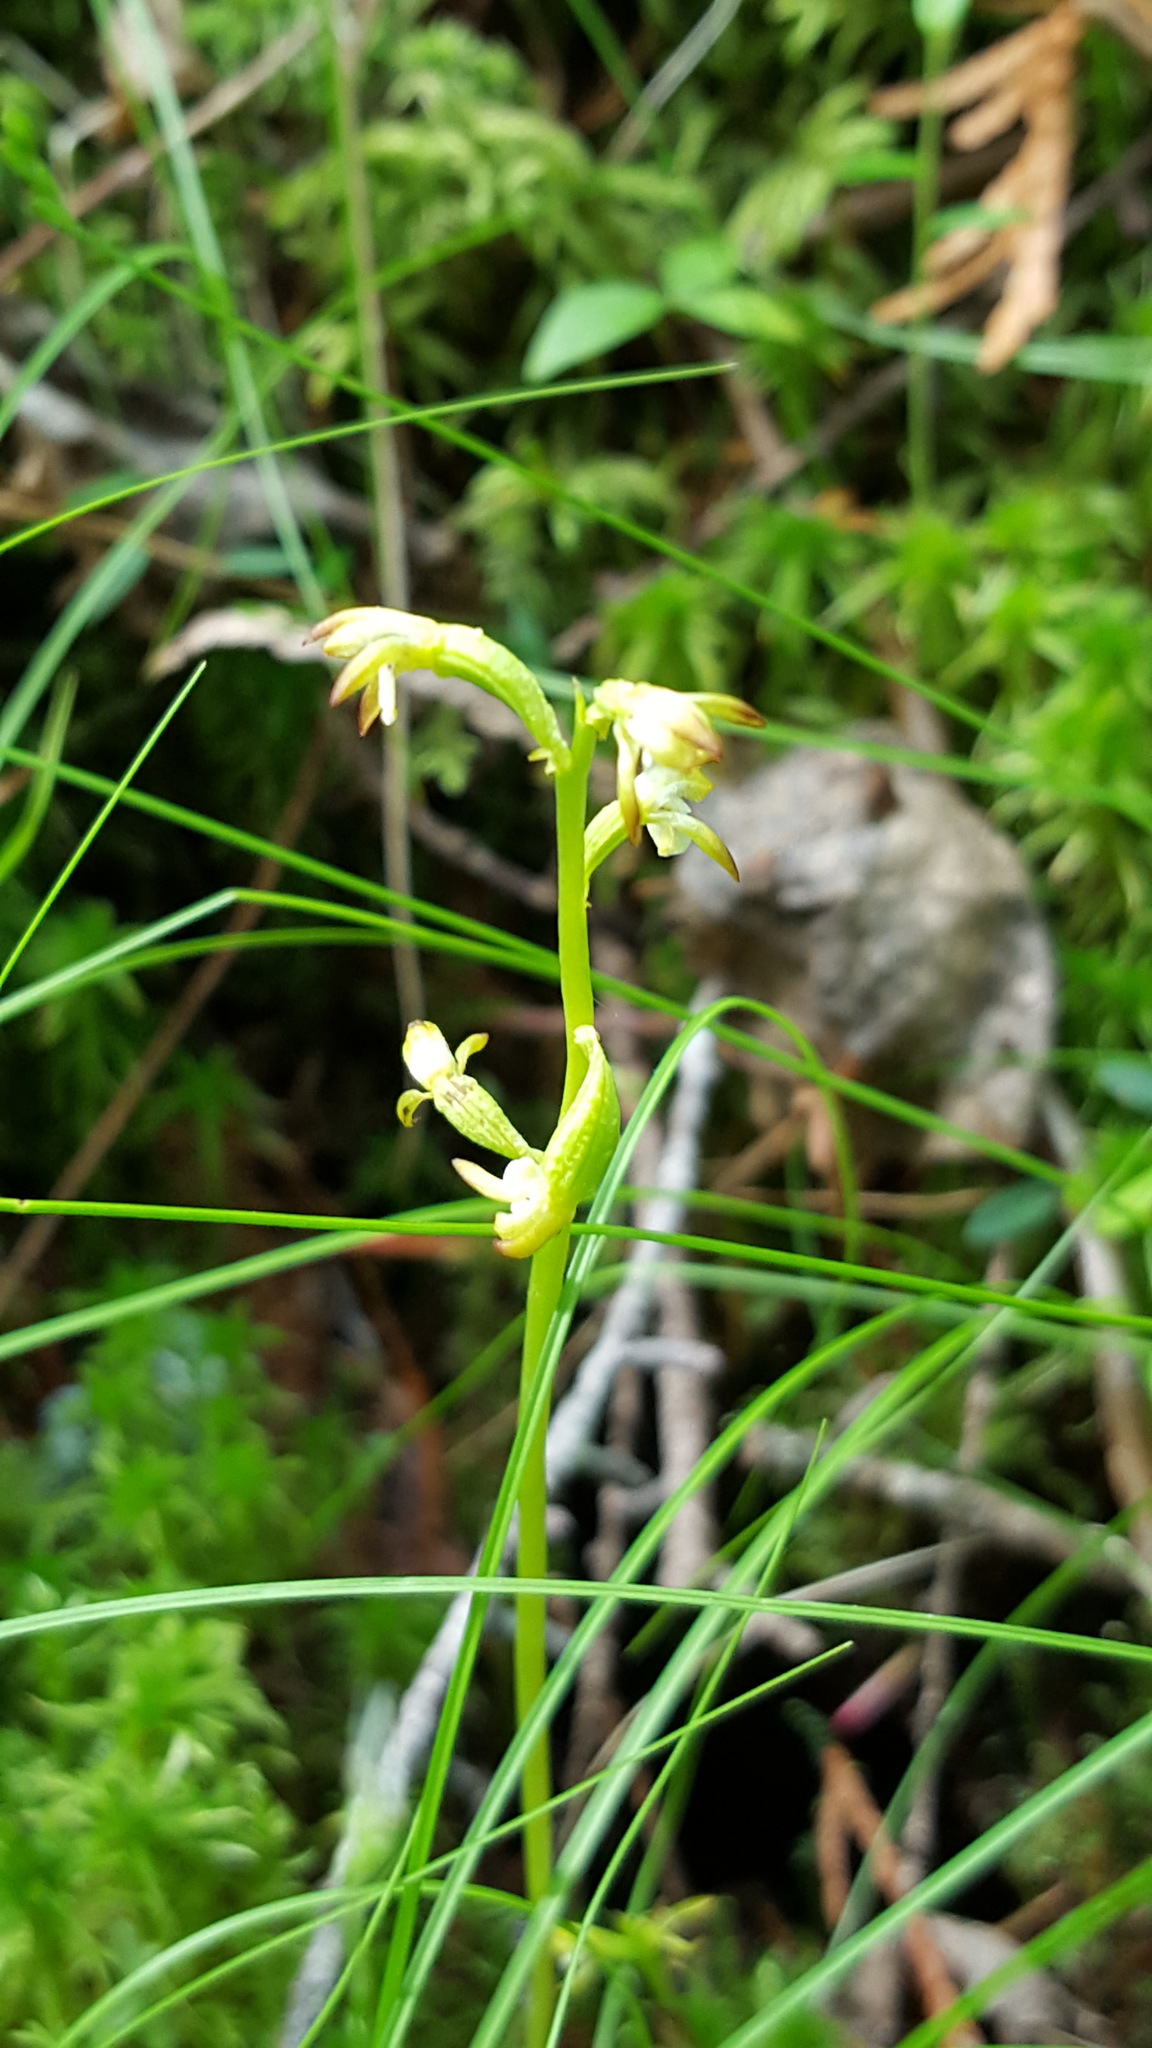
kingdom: Plantae
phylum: Tracheophyta
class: Liliopsida
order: Asparagales
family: Orchidaceae
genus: Corallorhiza
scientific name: Corallorhiza trifida
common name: Yellow coralroot
